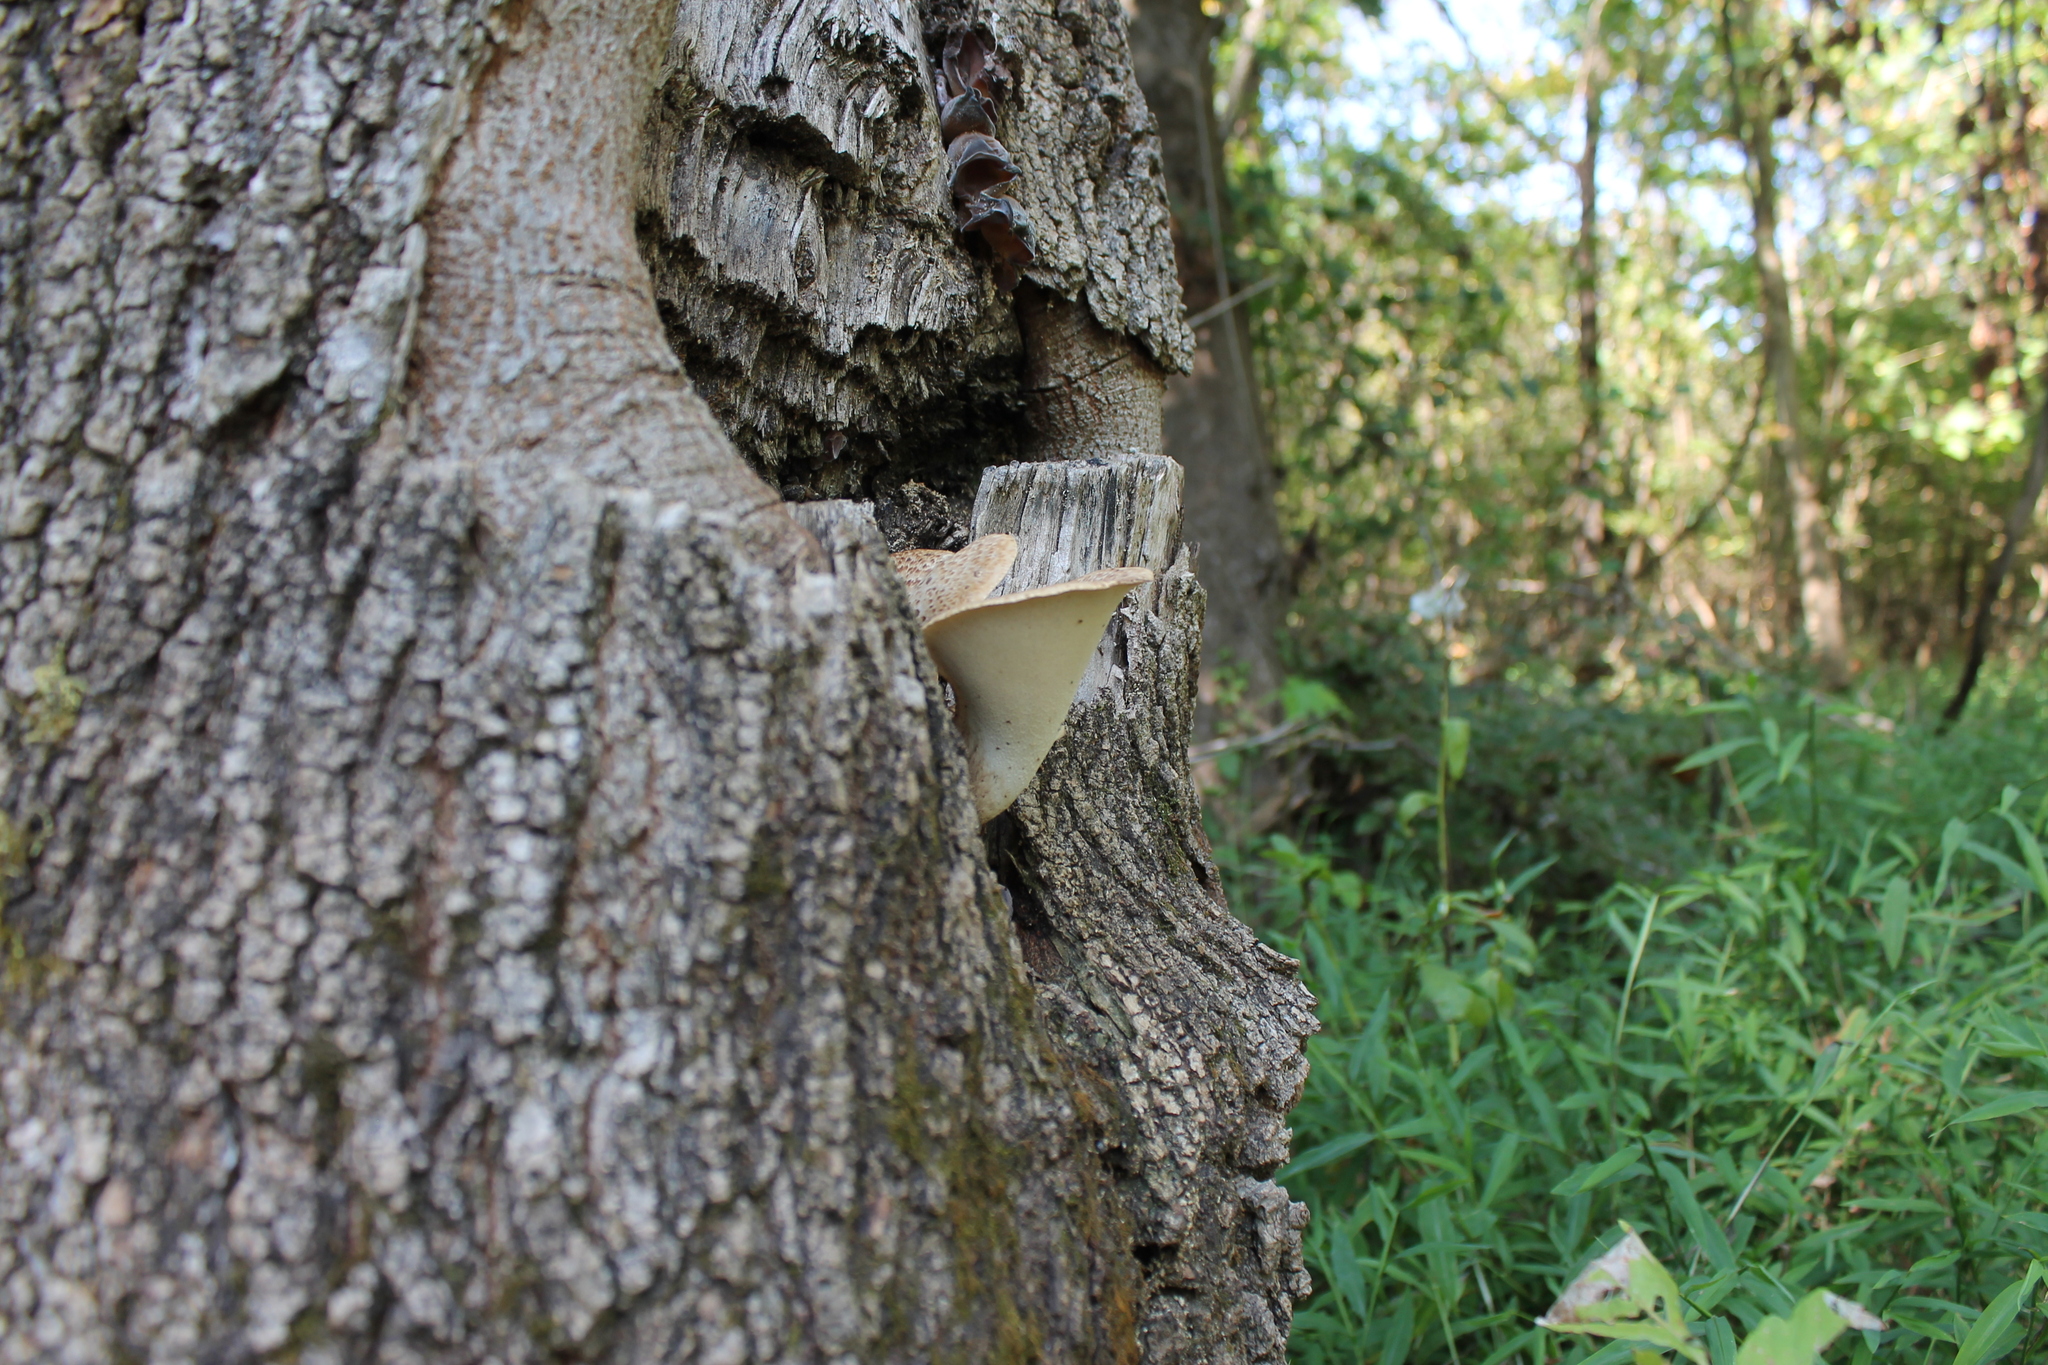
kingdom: Fungi
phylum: Basidiomycota
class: Agaricomycetes
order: Polyporales
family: Polyporaceae
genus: Cerioporus
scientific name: Cerioporus squamosus
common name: Dryad's saddle
